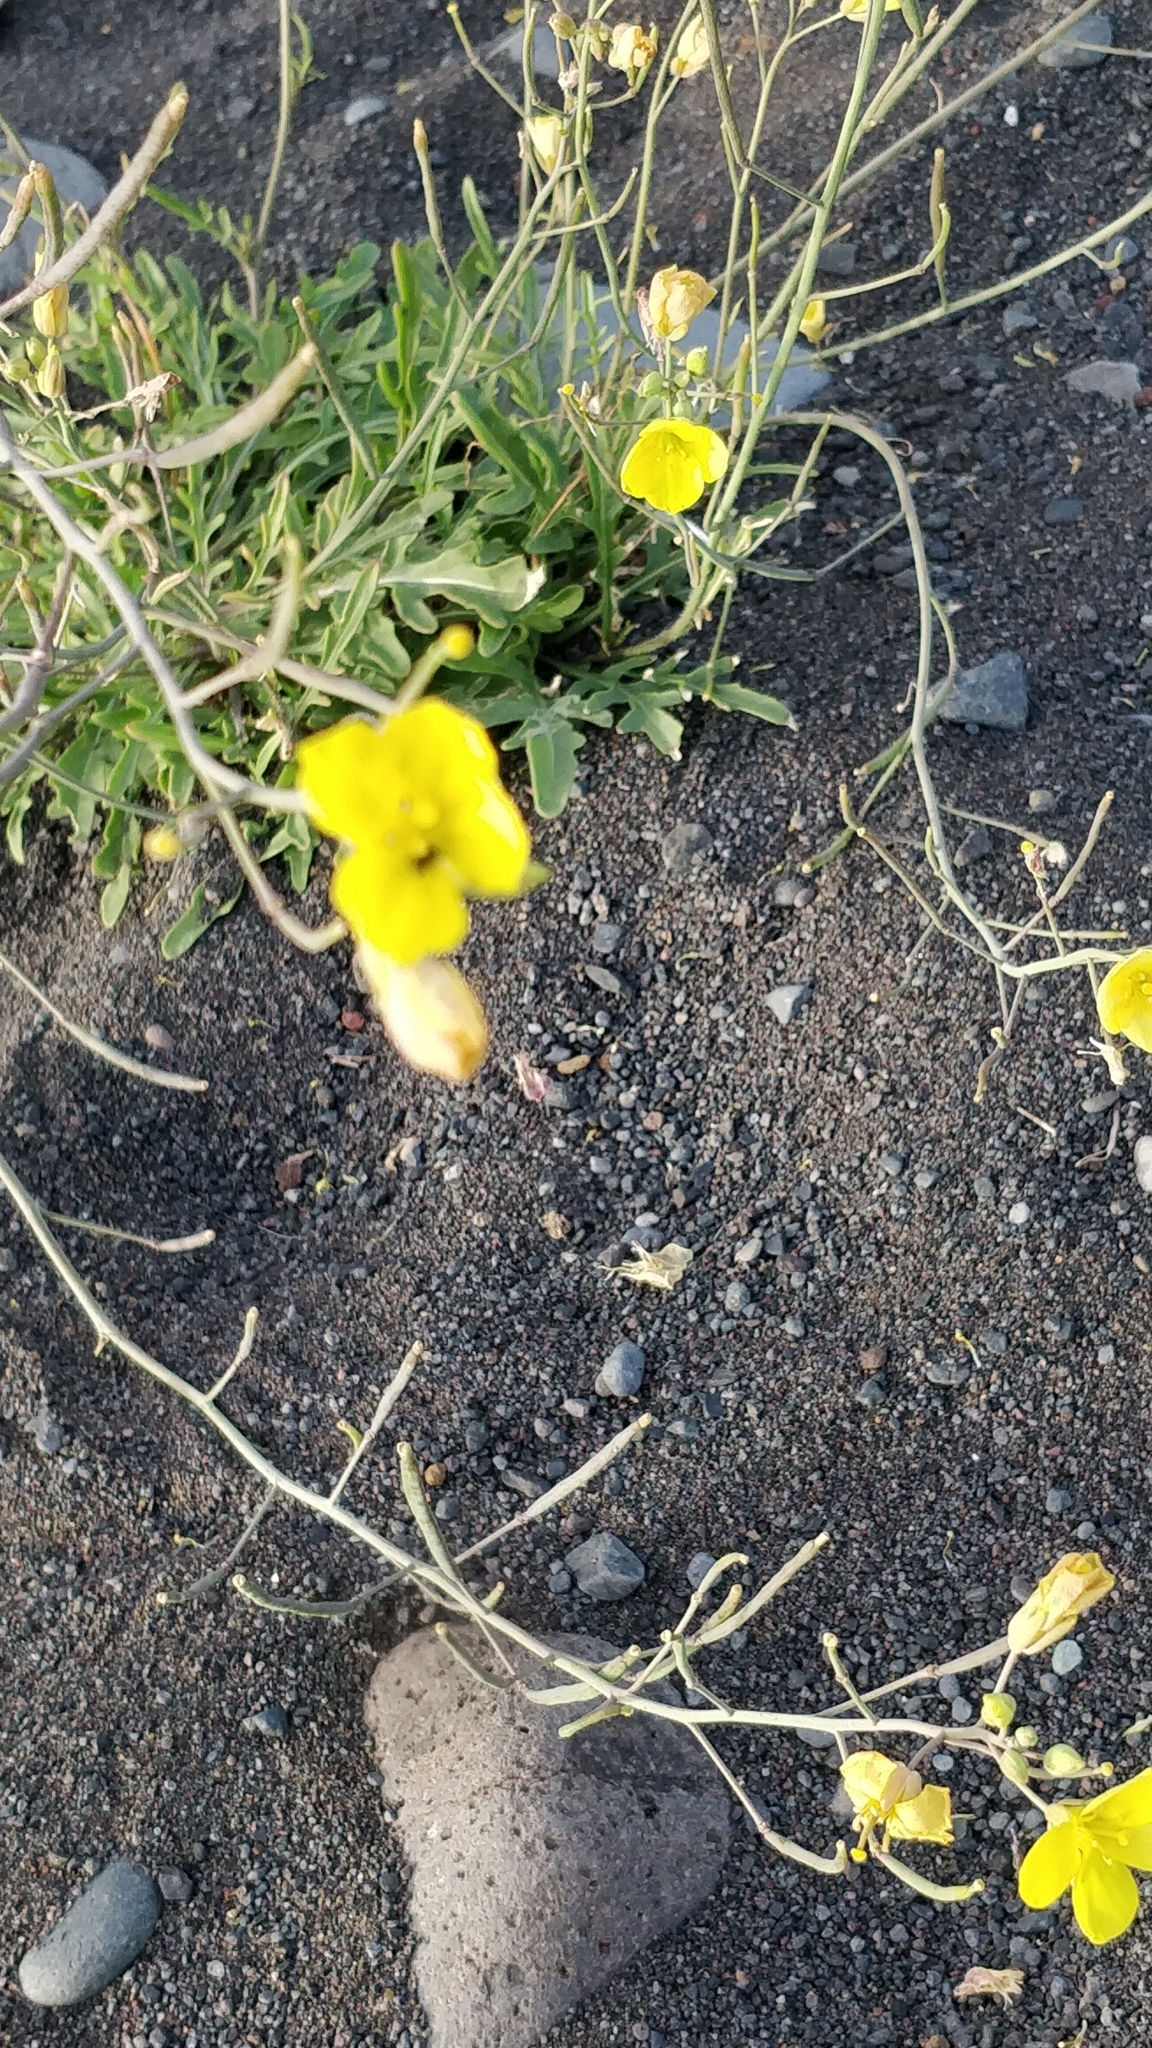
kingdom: Plantae
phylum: Tracheophyta
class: Magnoliopsida
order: Brassicales
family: Brassicaceae
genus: Diplotaxis
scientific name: Diplotaxis tenuifolia
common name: Perennial wall-rocket
